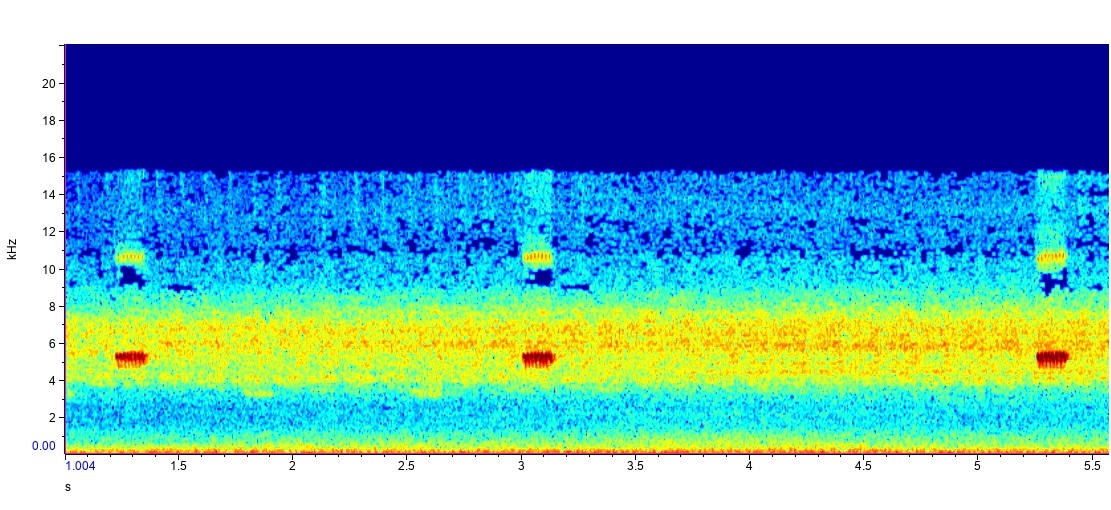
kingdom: Animalia
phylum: Arthropoda
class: Insecta
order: Orthoptera
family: Gryllidae
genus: Hapithus
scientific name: Hapithus luteolira
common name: False jumping bush cricket
